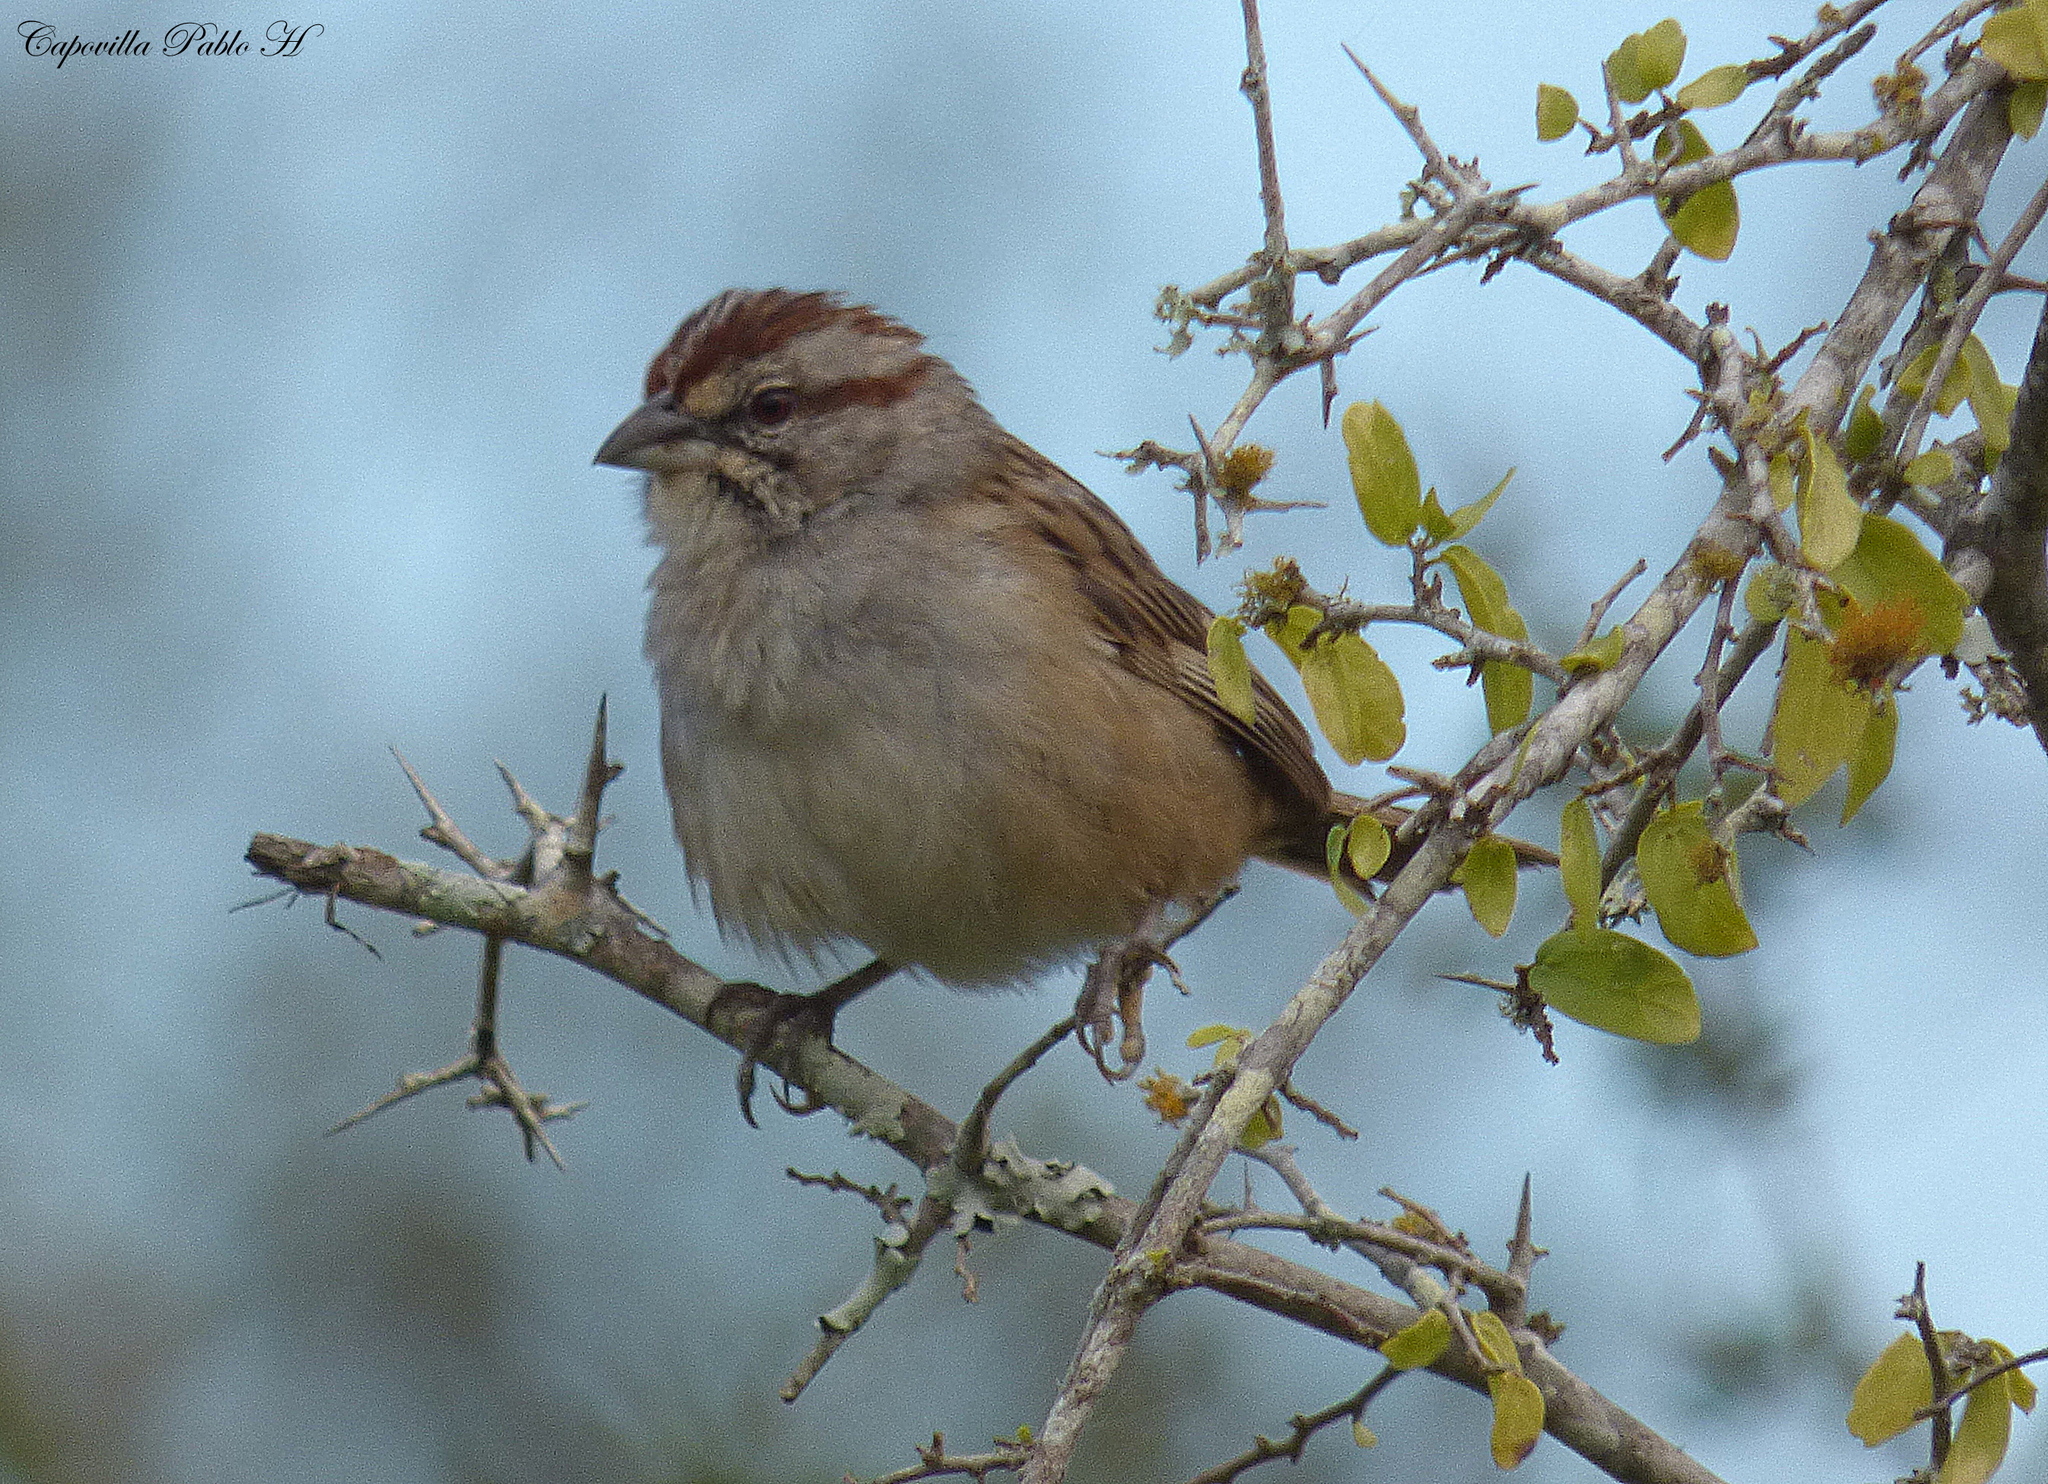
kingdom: Animalia
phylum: Chordata
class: Aves
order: Passeriformes
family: Passerellidae
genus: Rhynchospiza
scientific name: Rhynchospiza strigiceps
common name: Stripe-capped sparrow
